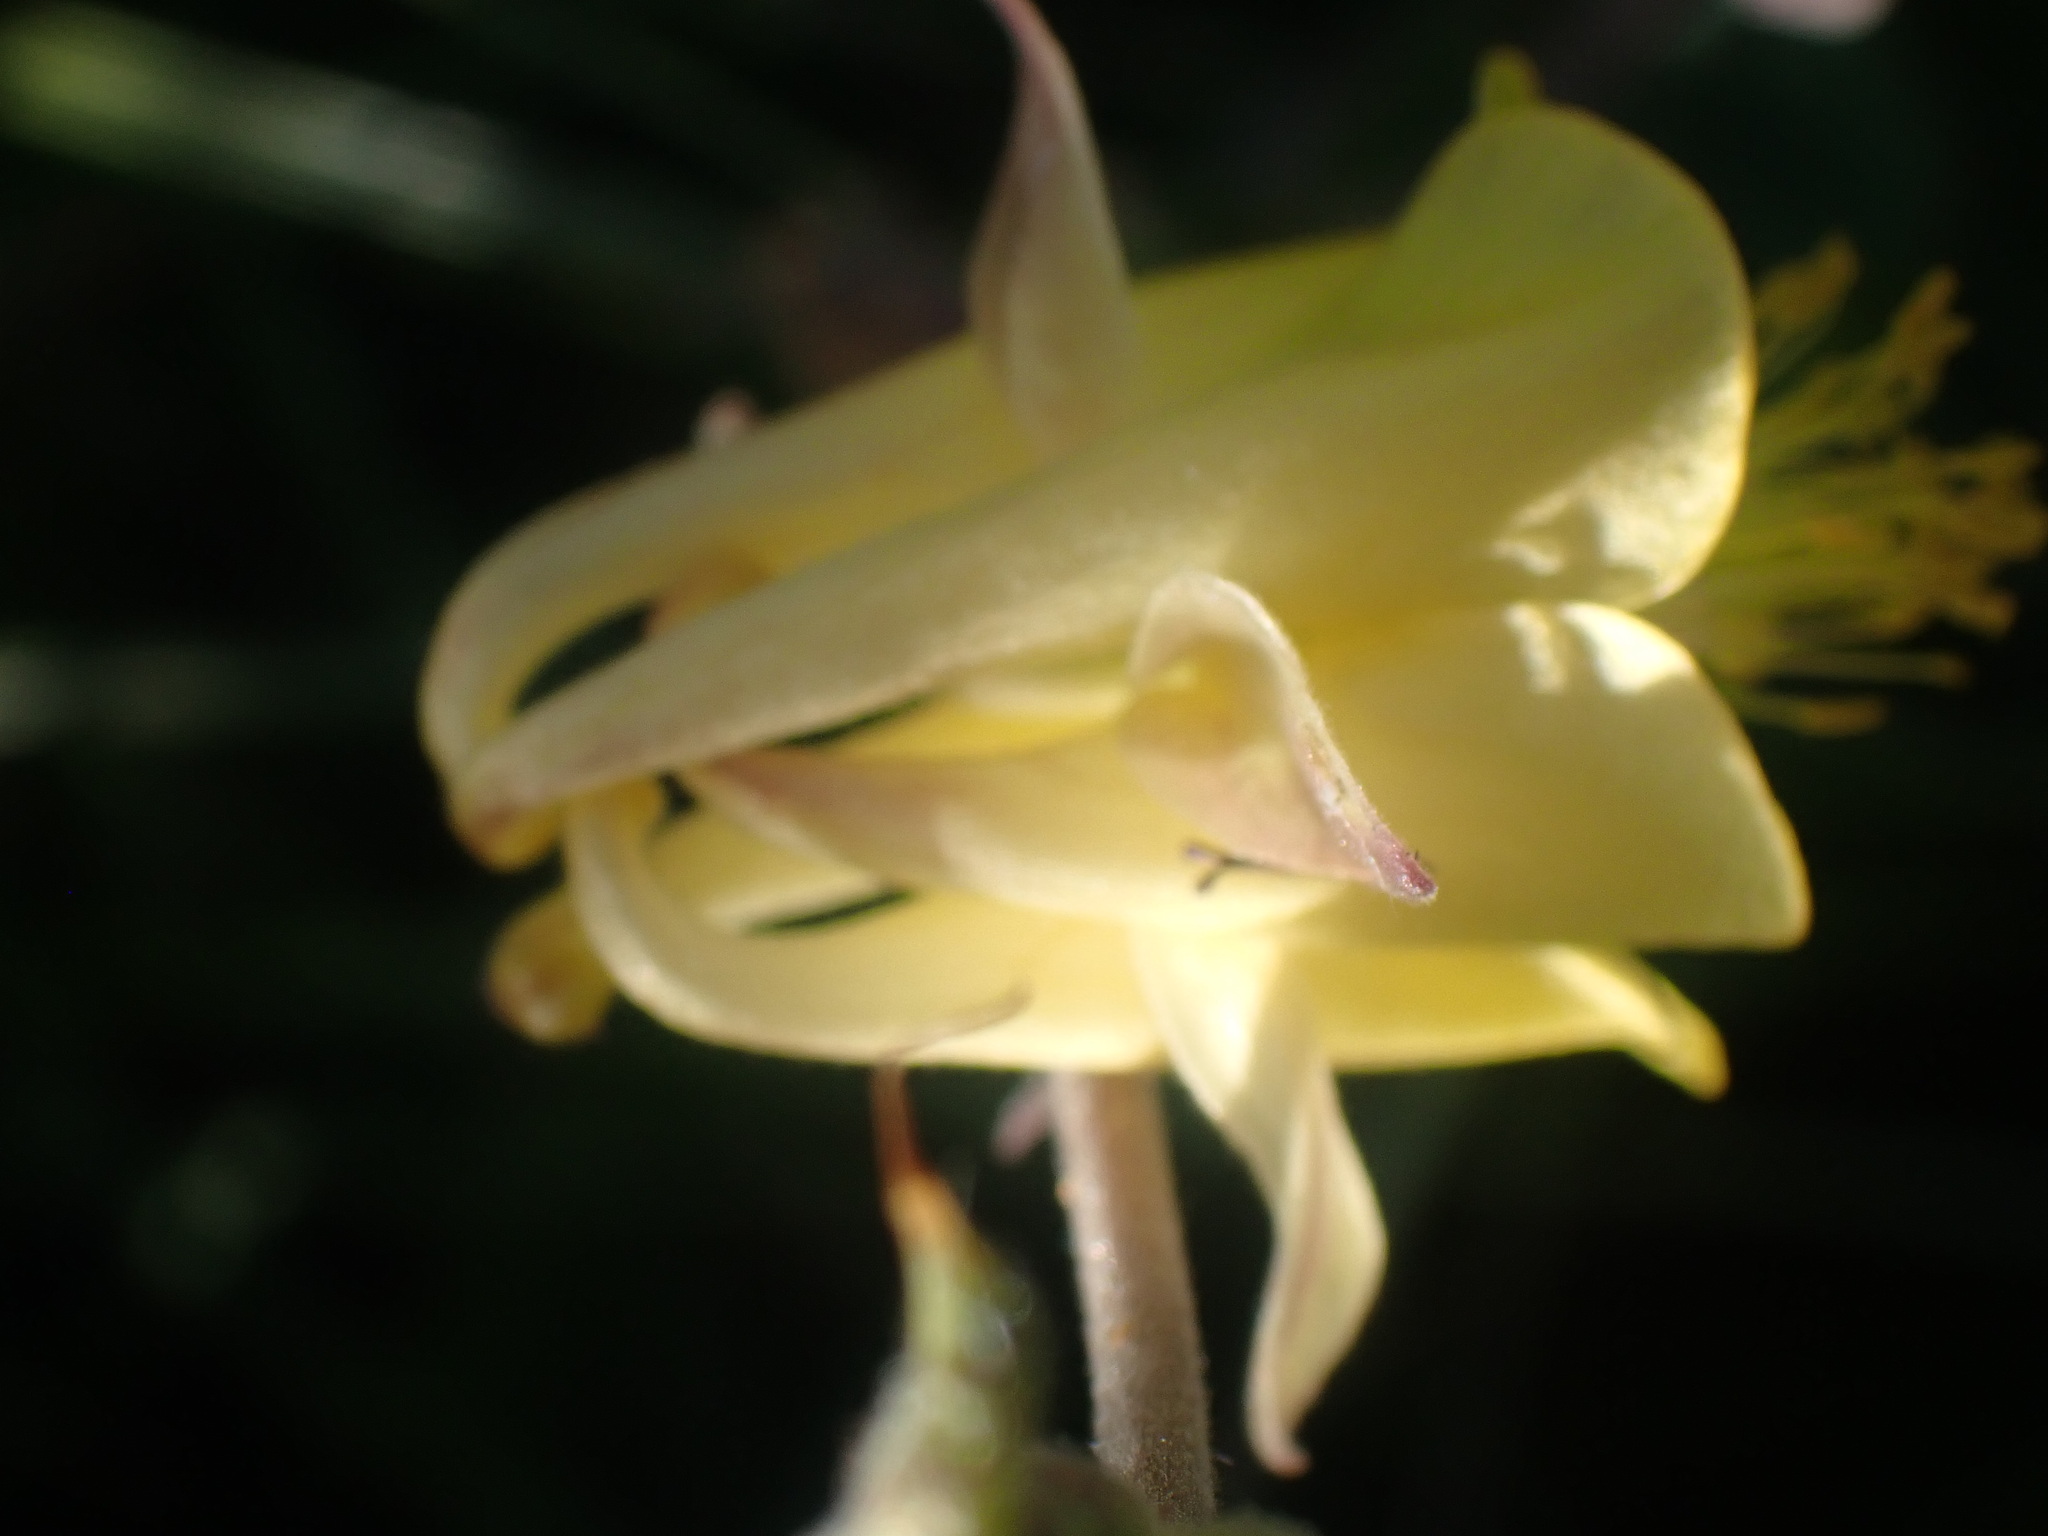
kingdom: Plantae
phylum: Tracheophyta
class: Magnoliopsida
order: Ranunculales
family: Ranunculaceae
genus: Aquilegia
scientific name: Aquilegia flavescens
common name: Yellow columbine
